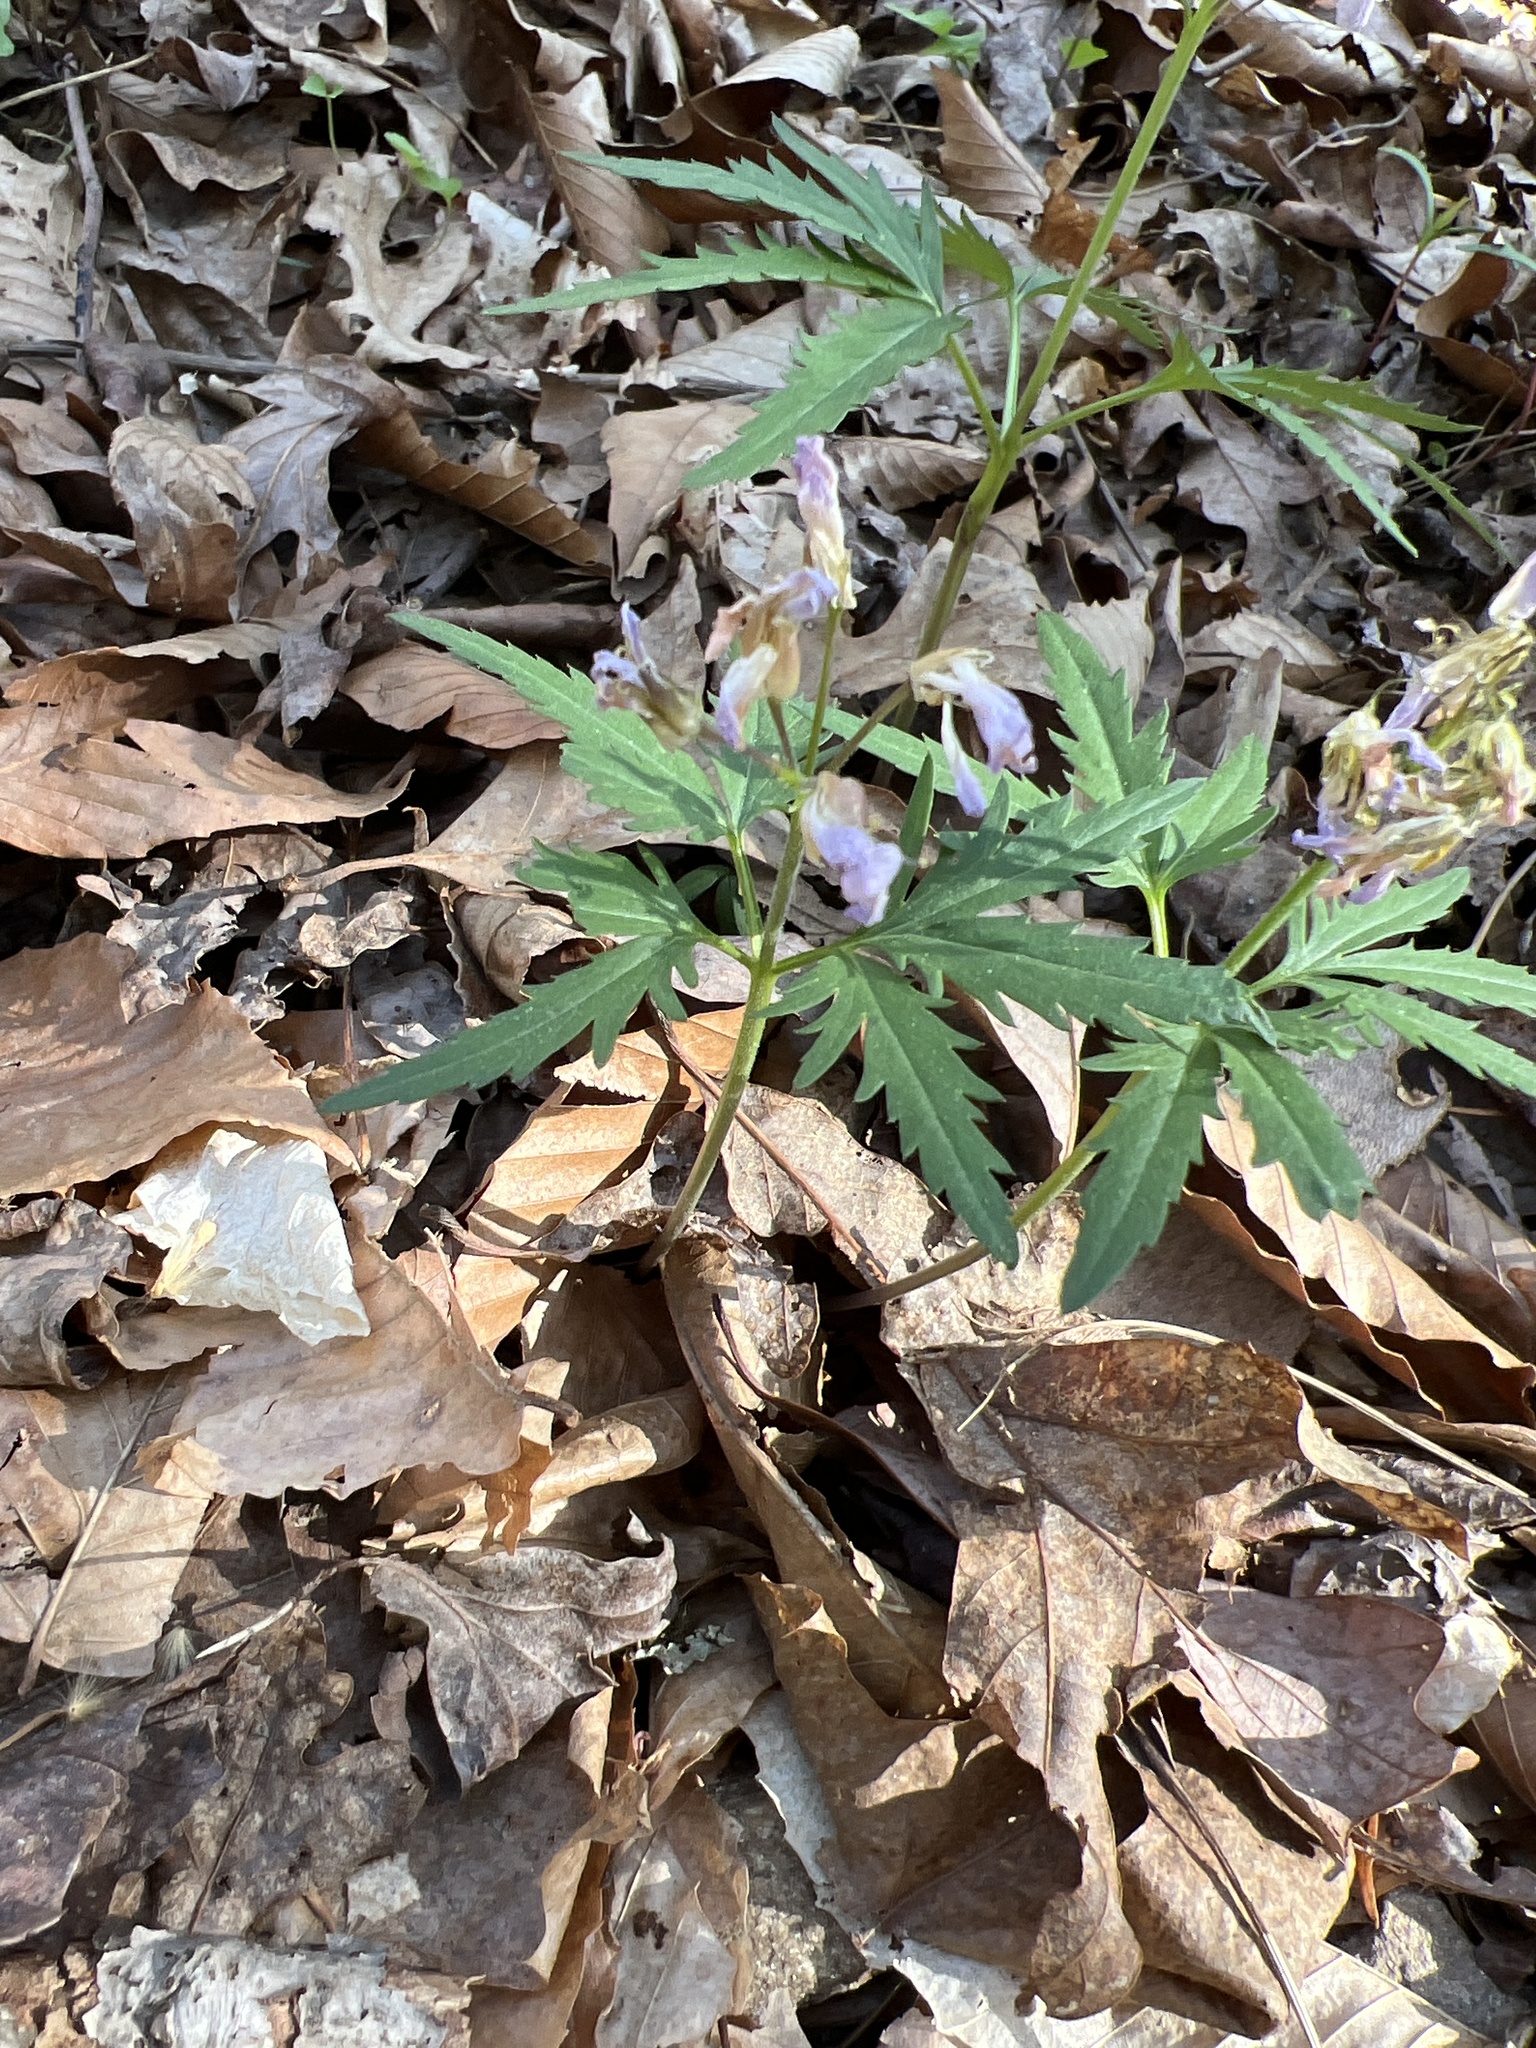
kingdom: Plantae
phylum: Tracheophyta
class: Magnoliopsida
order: Brassicales
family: Brassicaceae
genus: Cardamine
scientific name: Cardamine concatenata
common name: Cut-leaf toothcup
